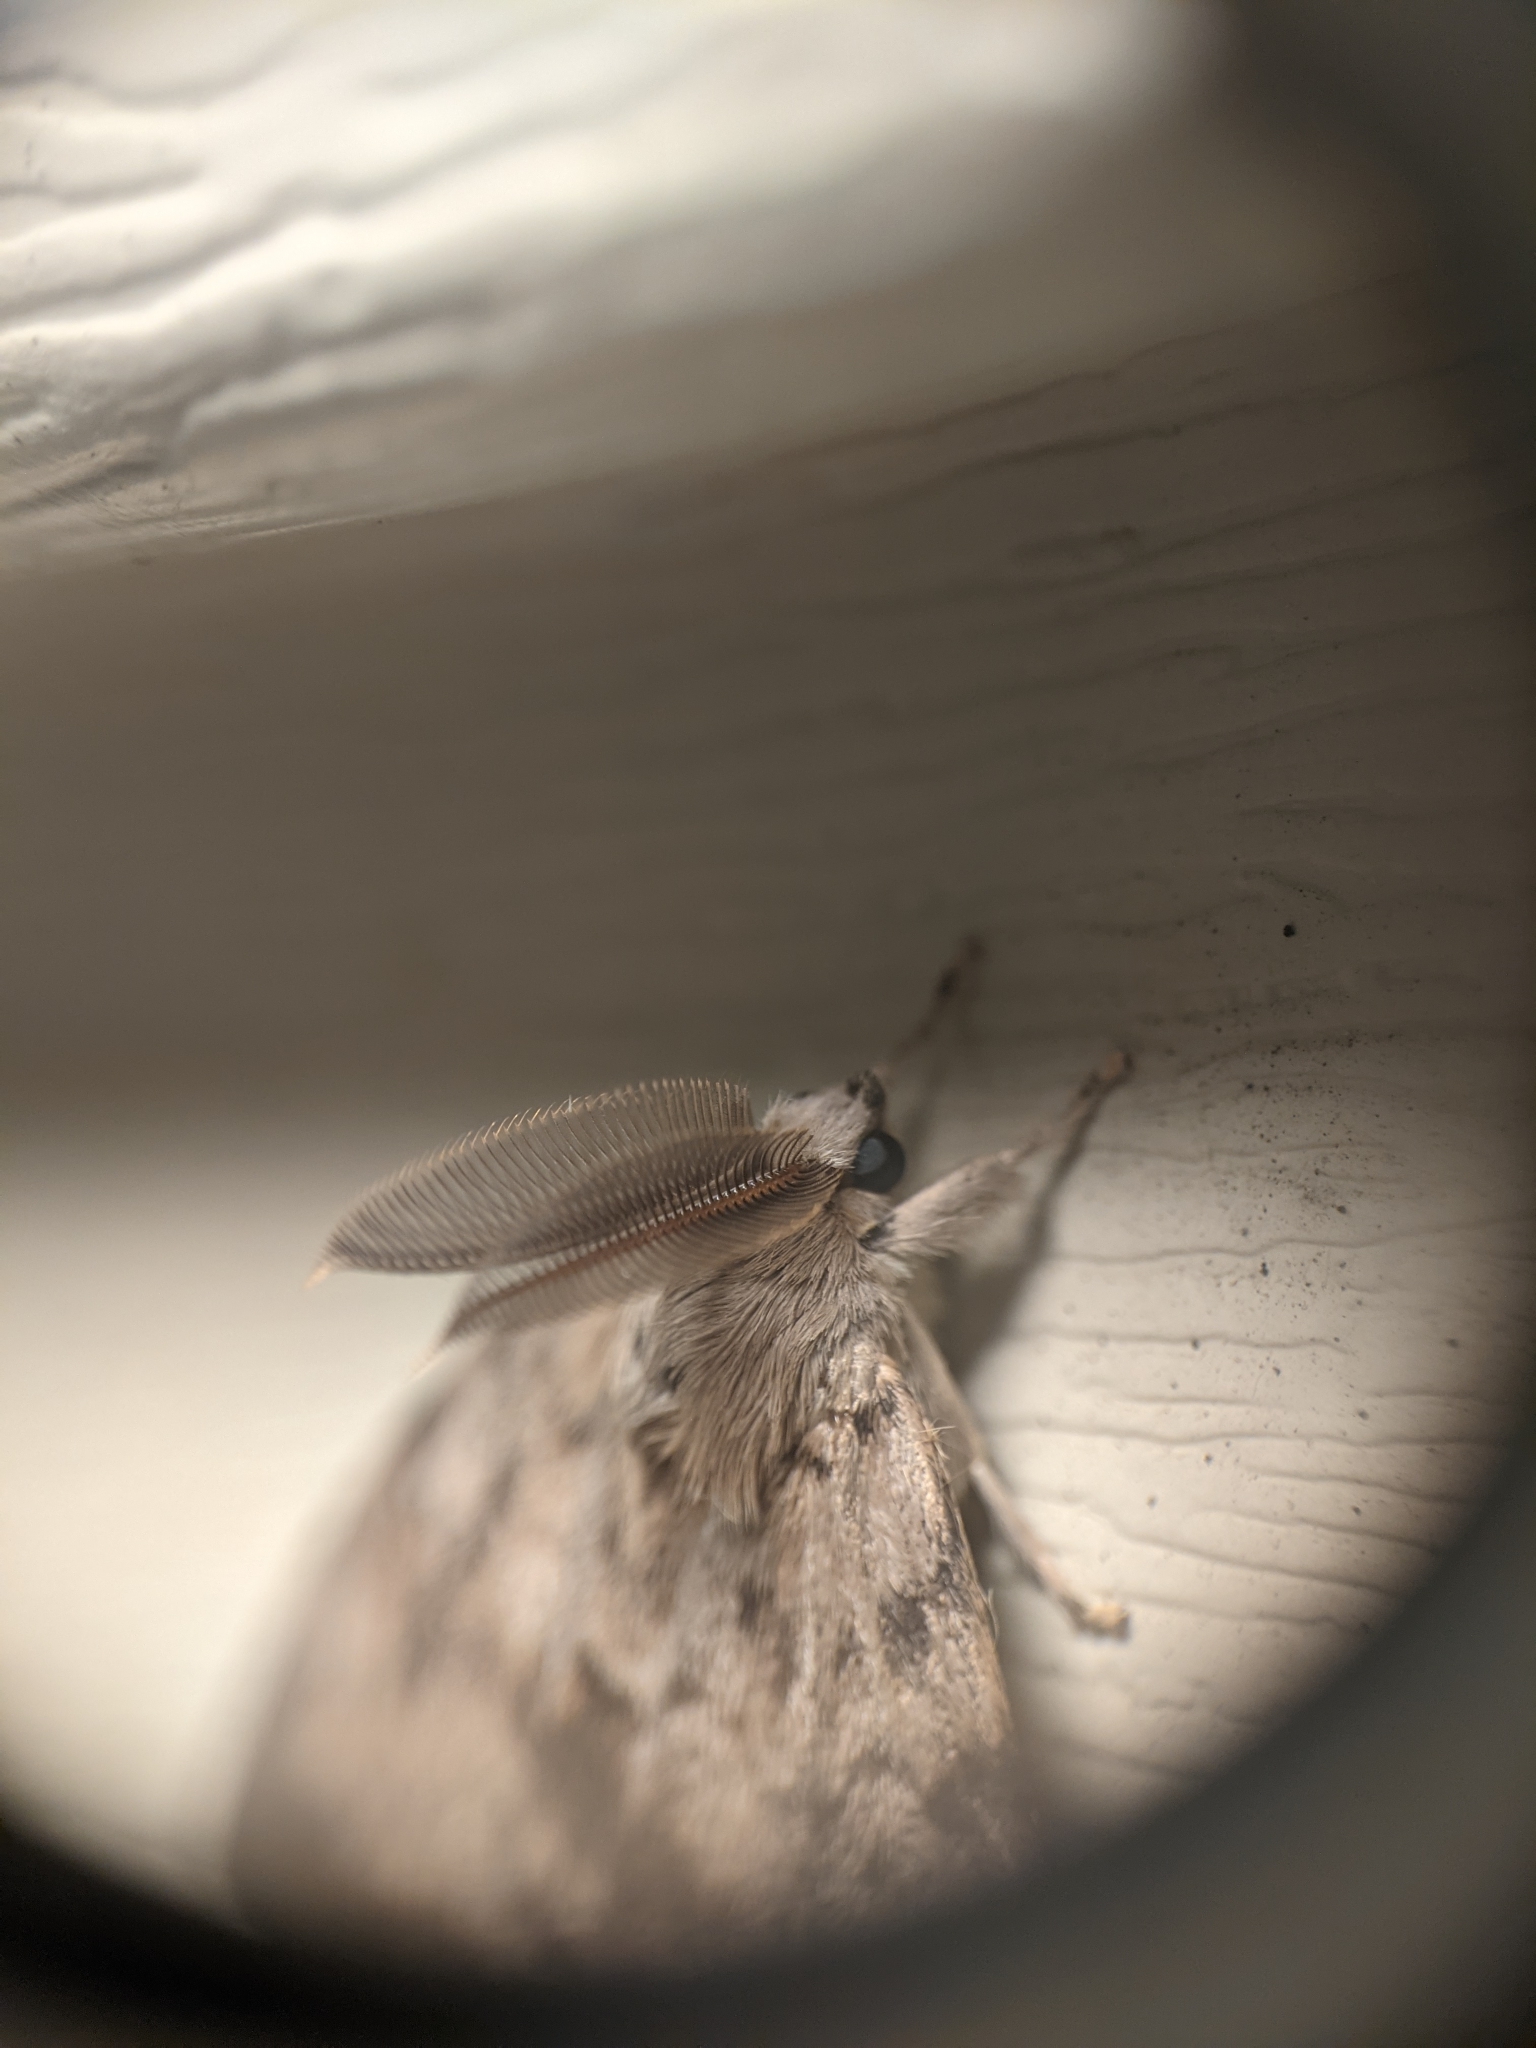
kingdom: Animalia
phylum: Arthropoda
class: Insecta
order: Lepidoptera
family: Erebidae
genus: Lymantria
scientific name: Lymantria dispar
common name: Gypsy moth
